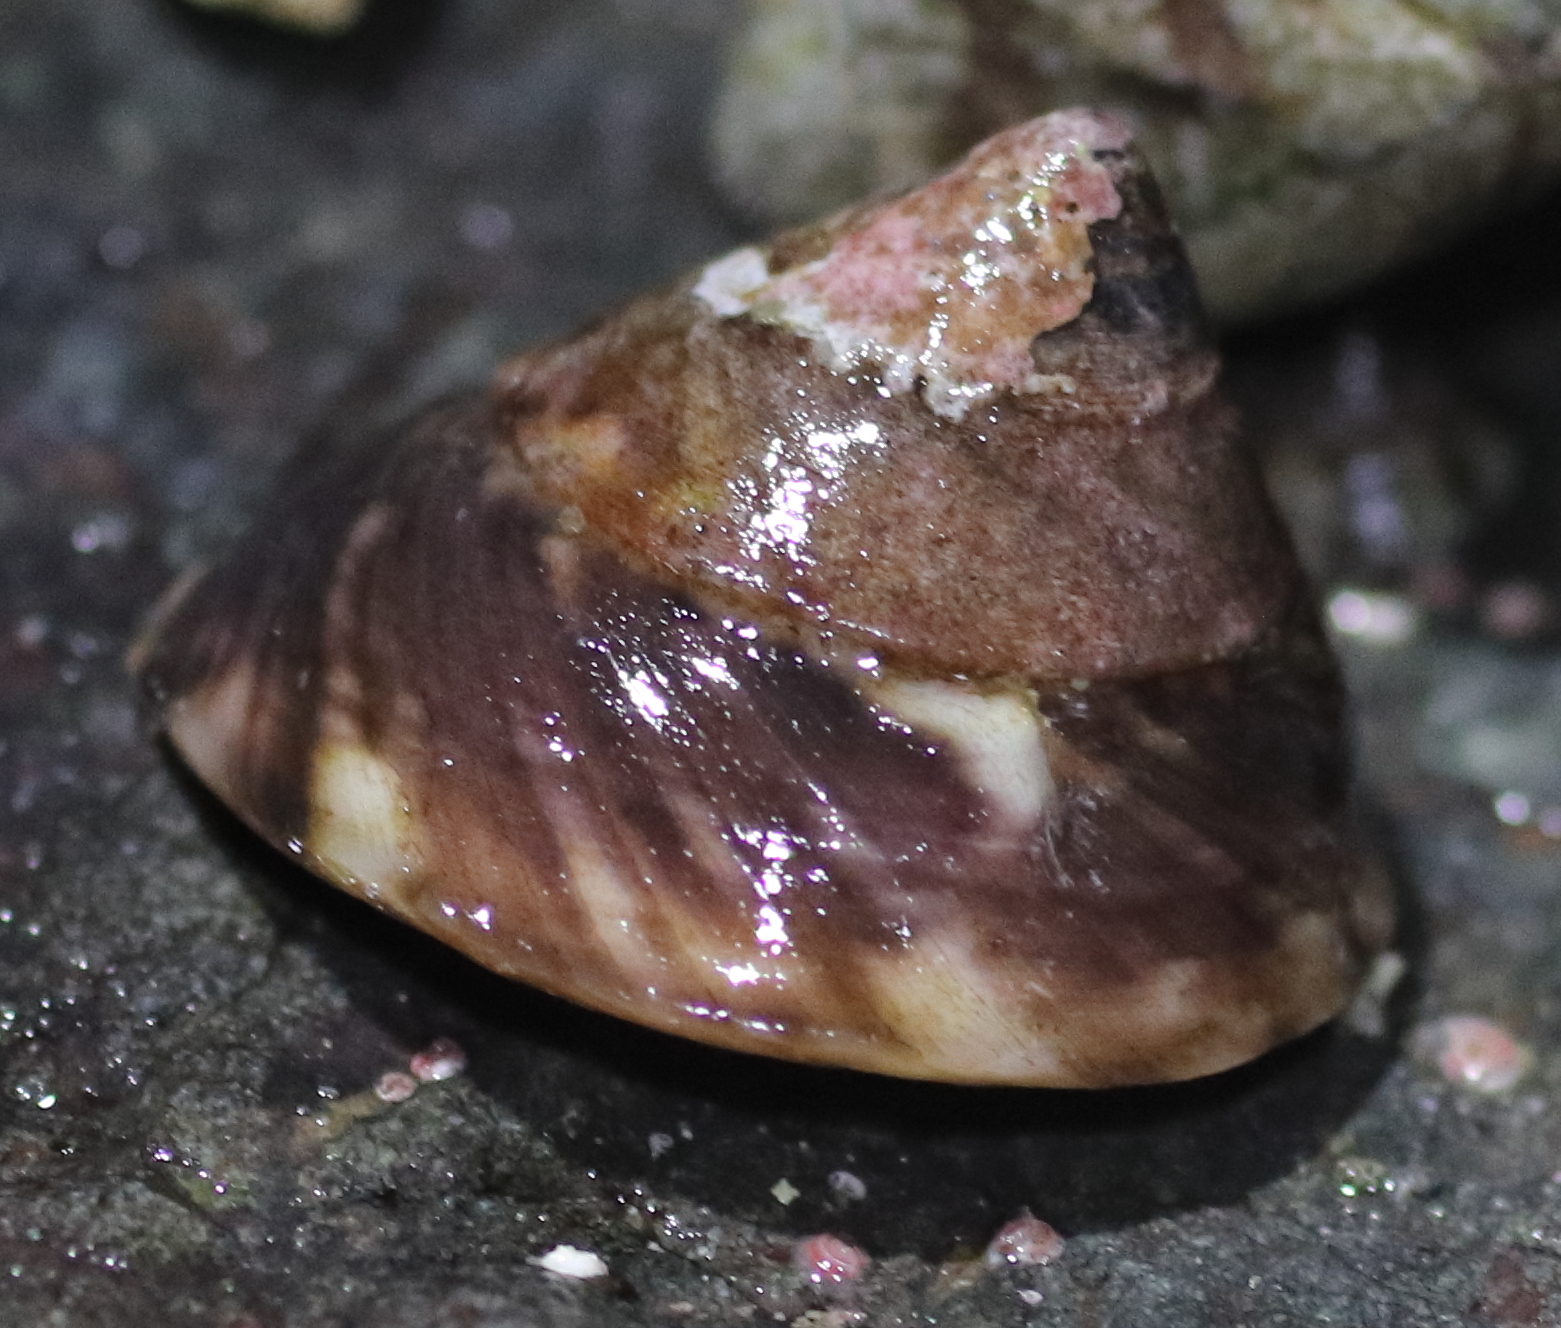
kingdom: Animalia
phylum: Mollusca
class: Gastropoda
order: Trochida
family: Tegulidae
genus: Tegula
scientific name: Tegula pulligo
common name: Brown turban
